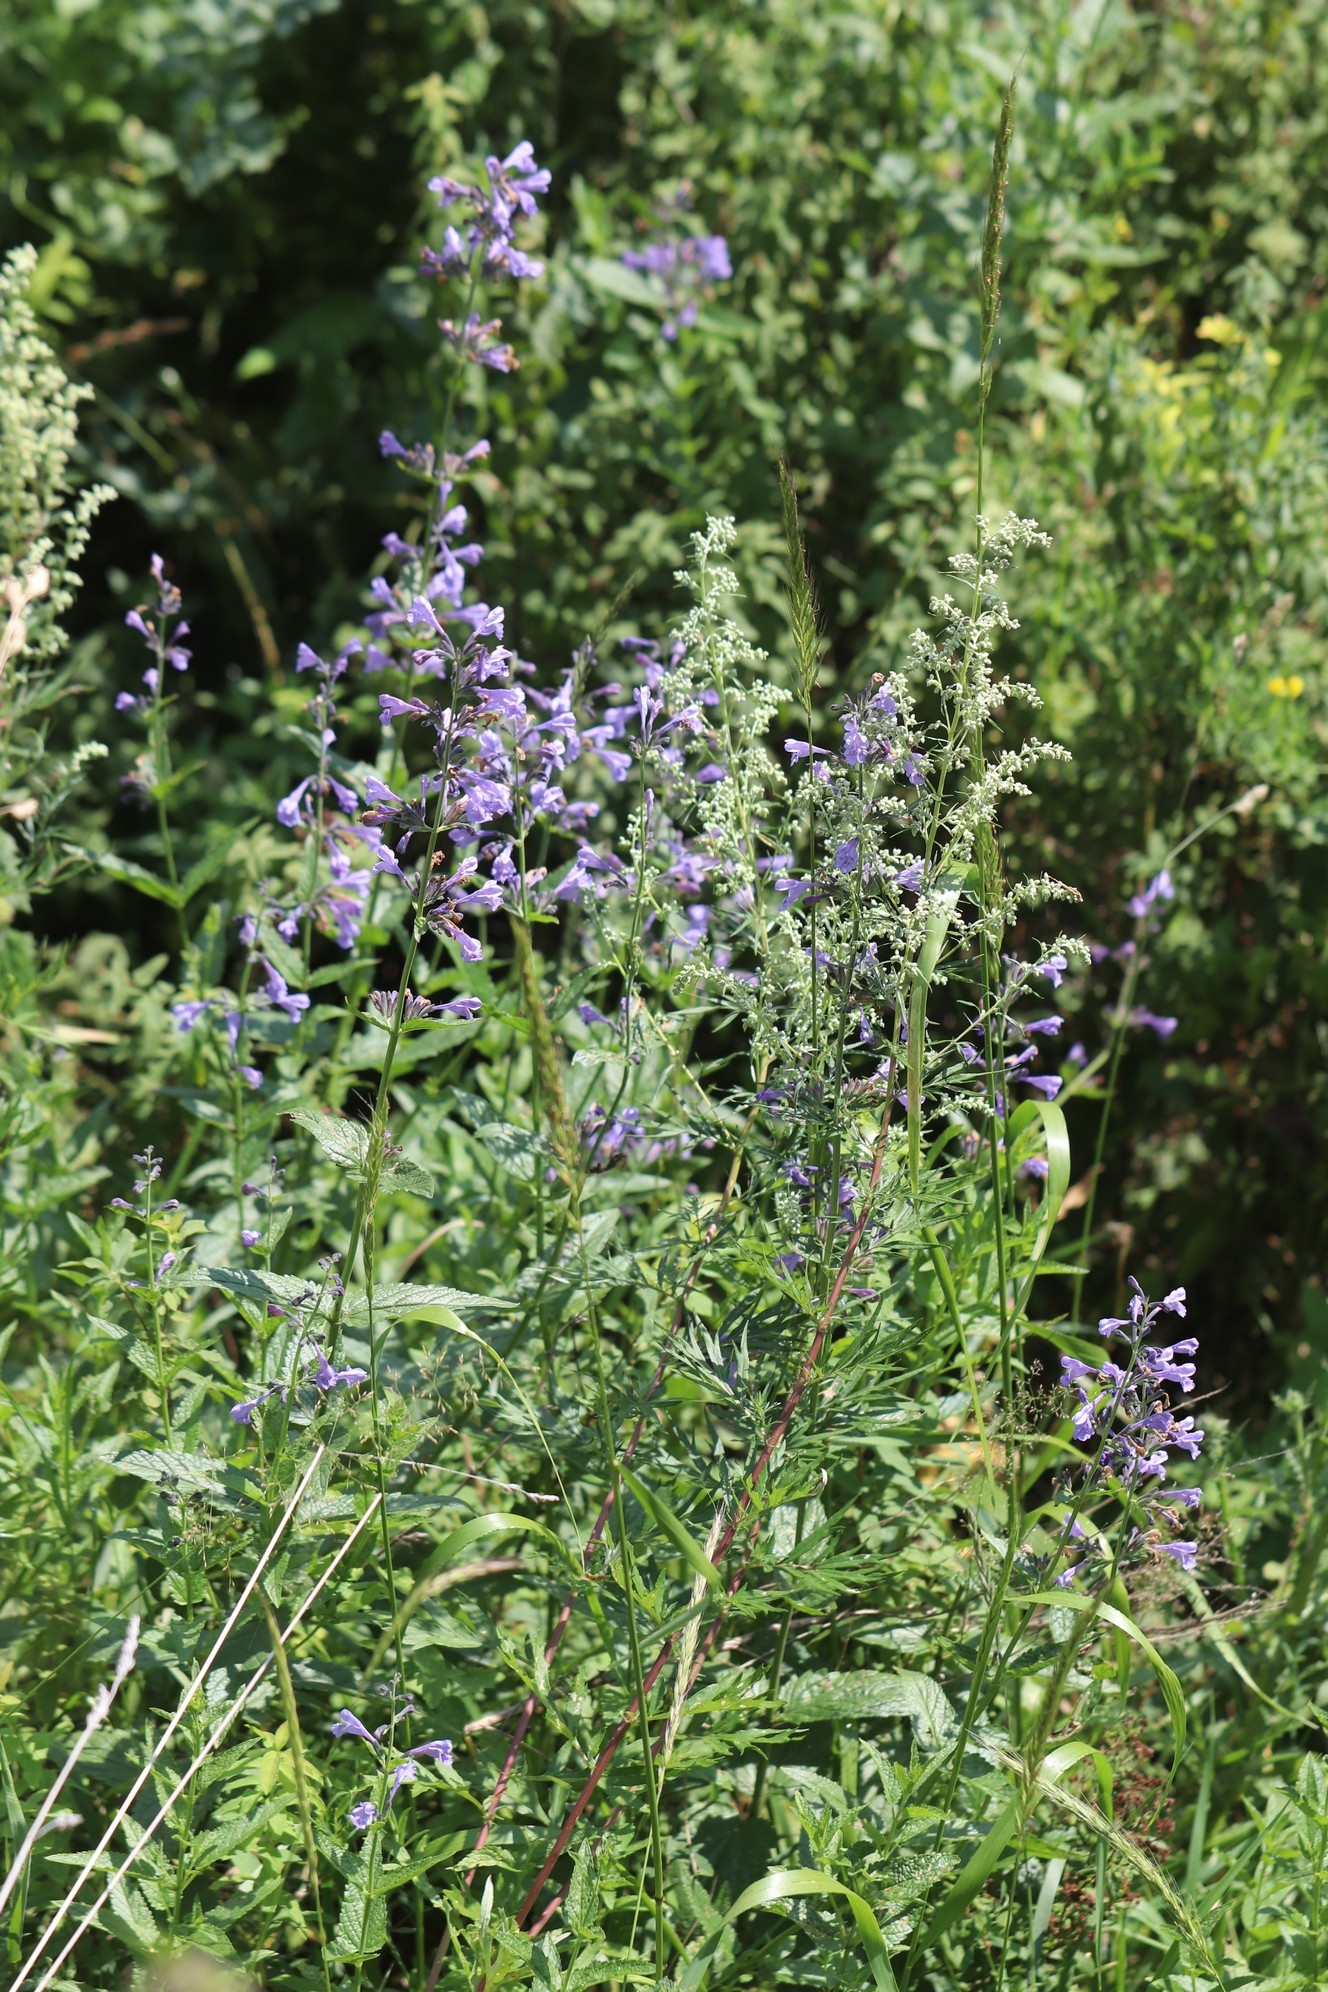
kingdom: Plantae
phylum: Tracheophyta
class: Magnoliopsida
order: Lamiales
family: Lamiaceae
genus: Nepeta
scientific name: Nepeta sibirica
